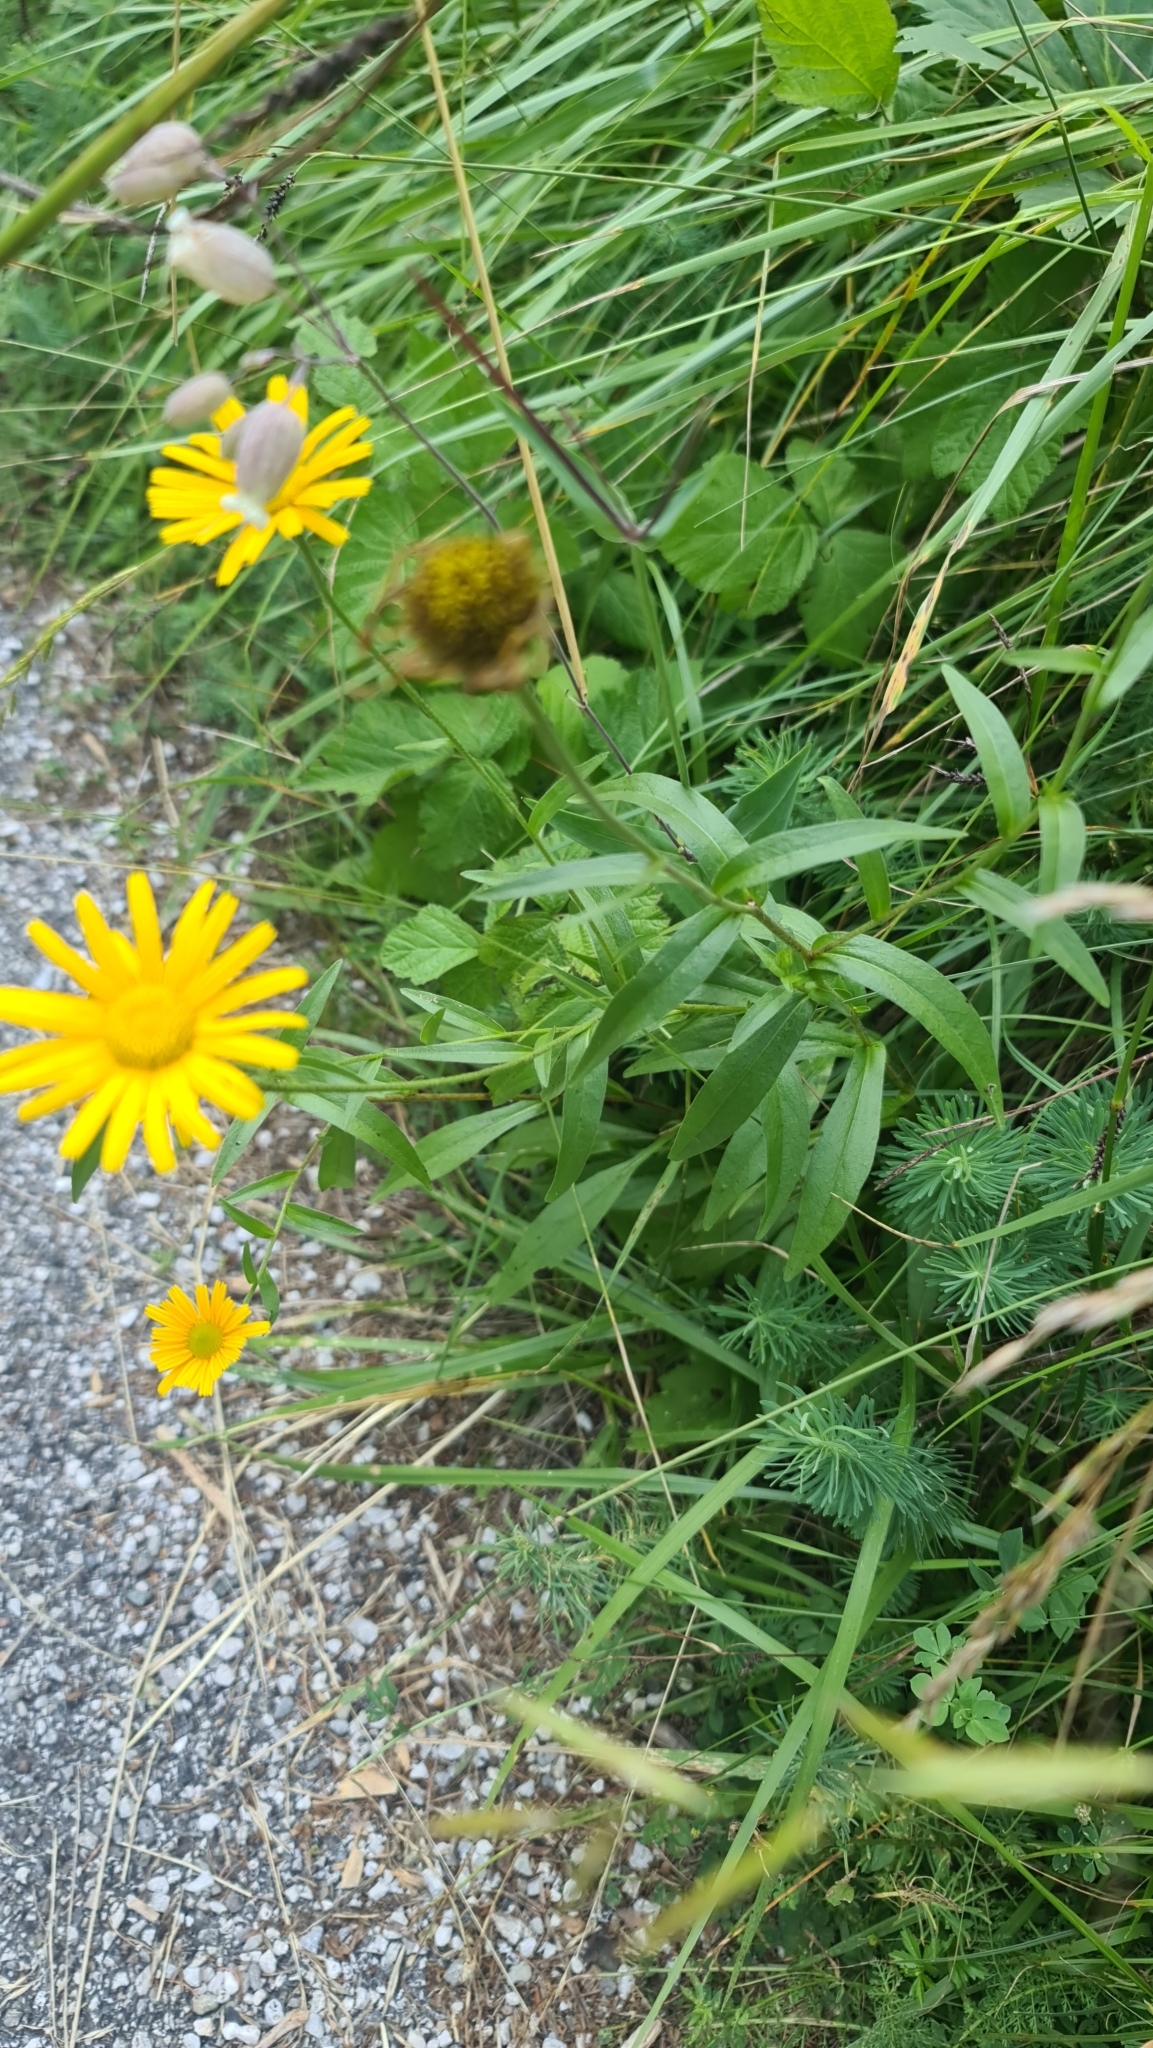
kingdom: Plantae
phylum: Tracheophyta
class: Magnoliopsida
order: Asterales
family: Asteraceae
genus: Buphthalmum
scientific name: Buphthalmum salicifolium
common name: Willow-leaved yellow-oxeye
